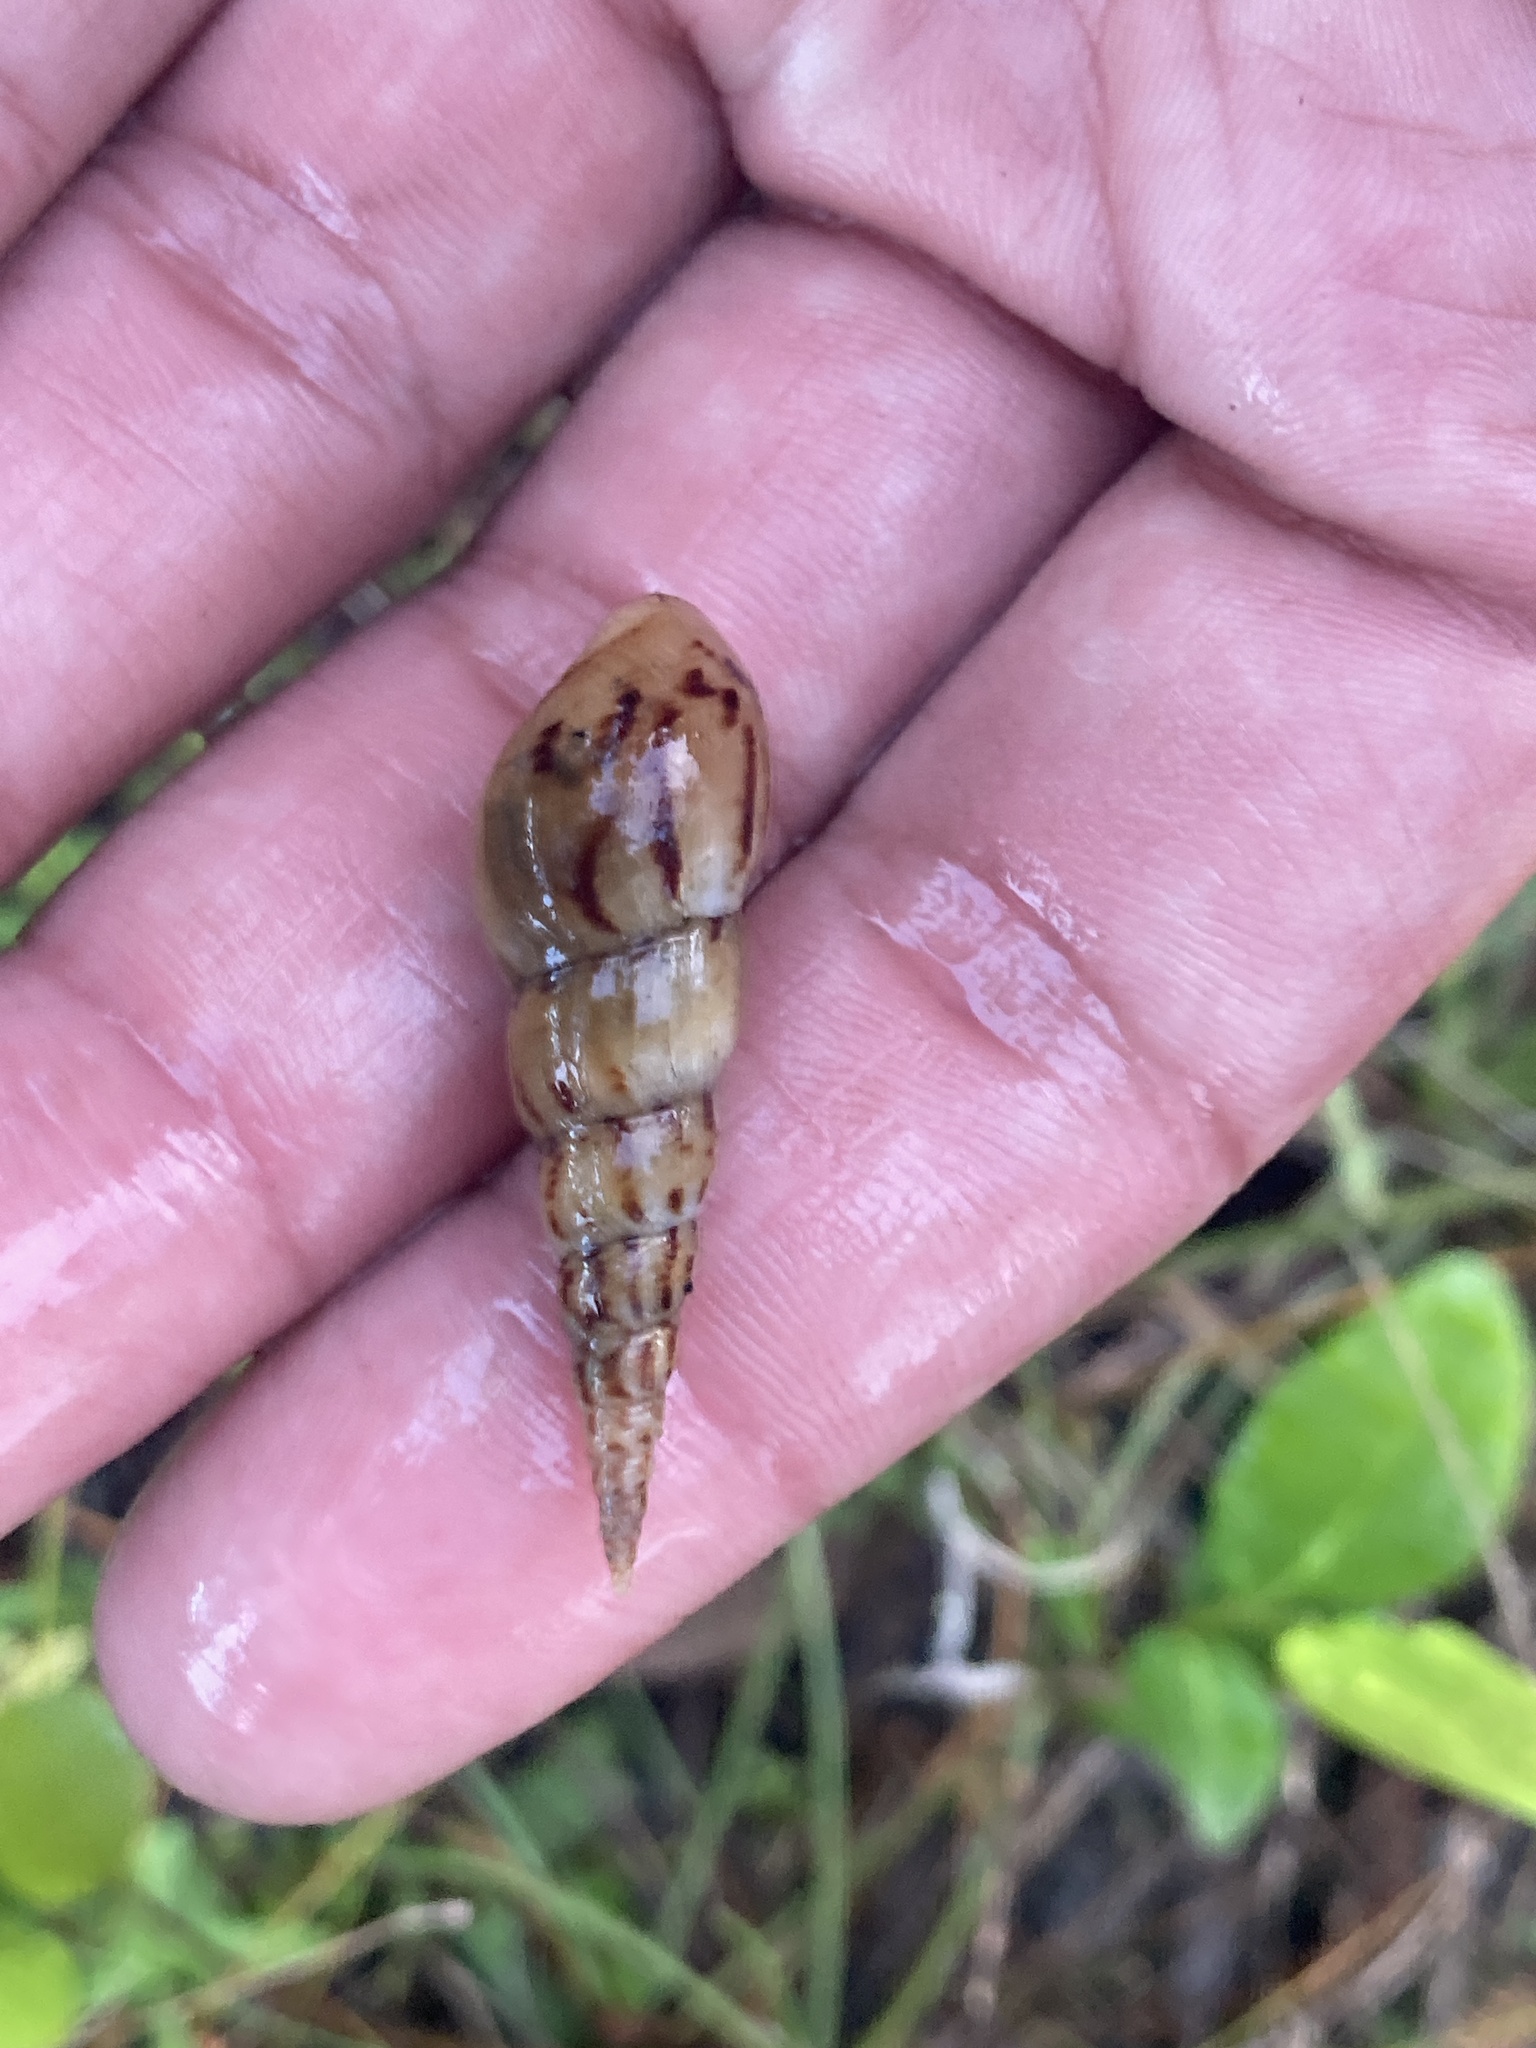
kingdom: Animalia
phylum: Mollusca
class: Gastropoda
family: Thiaridae
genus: Melanoides
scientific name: Melanoides tuberculata
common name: Red-rim melania
